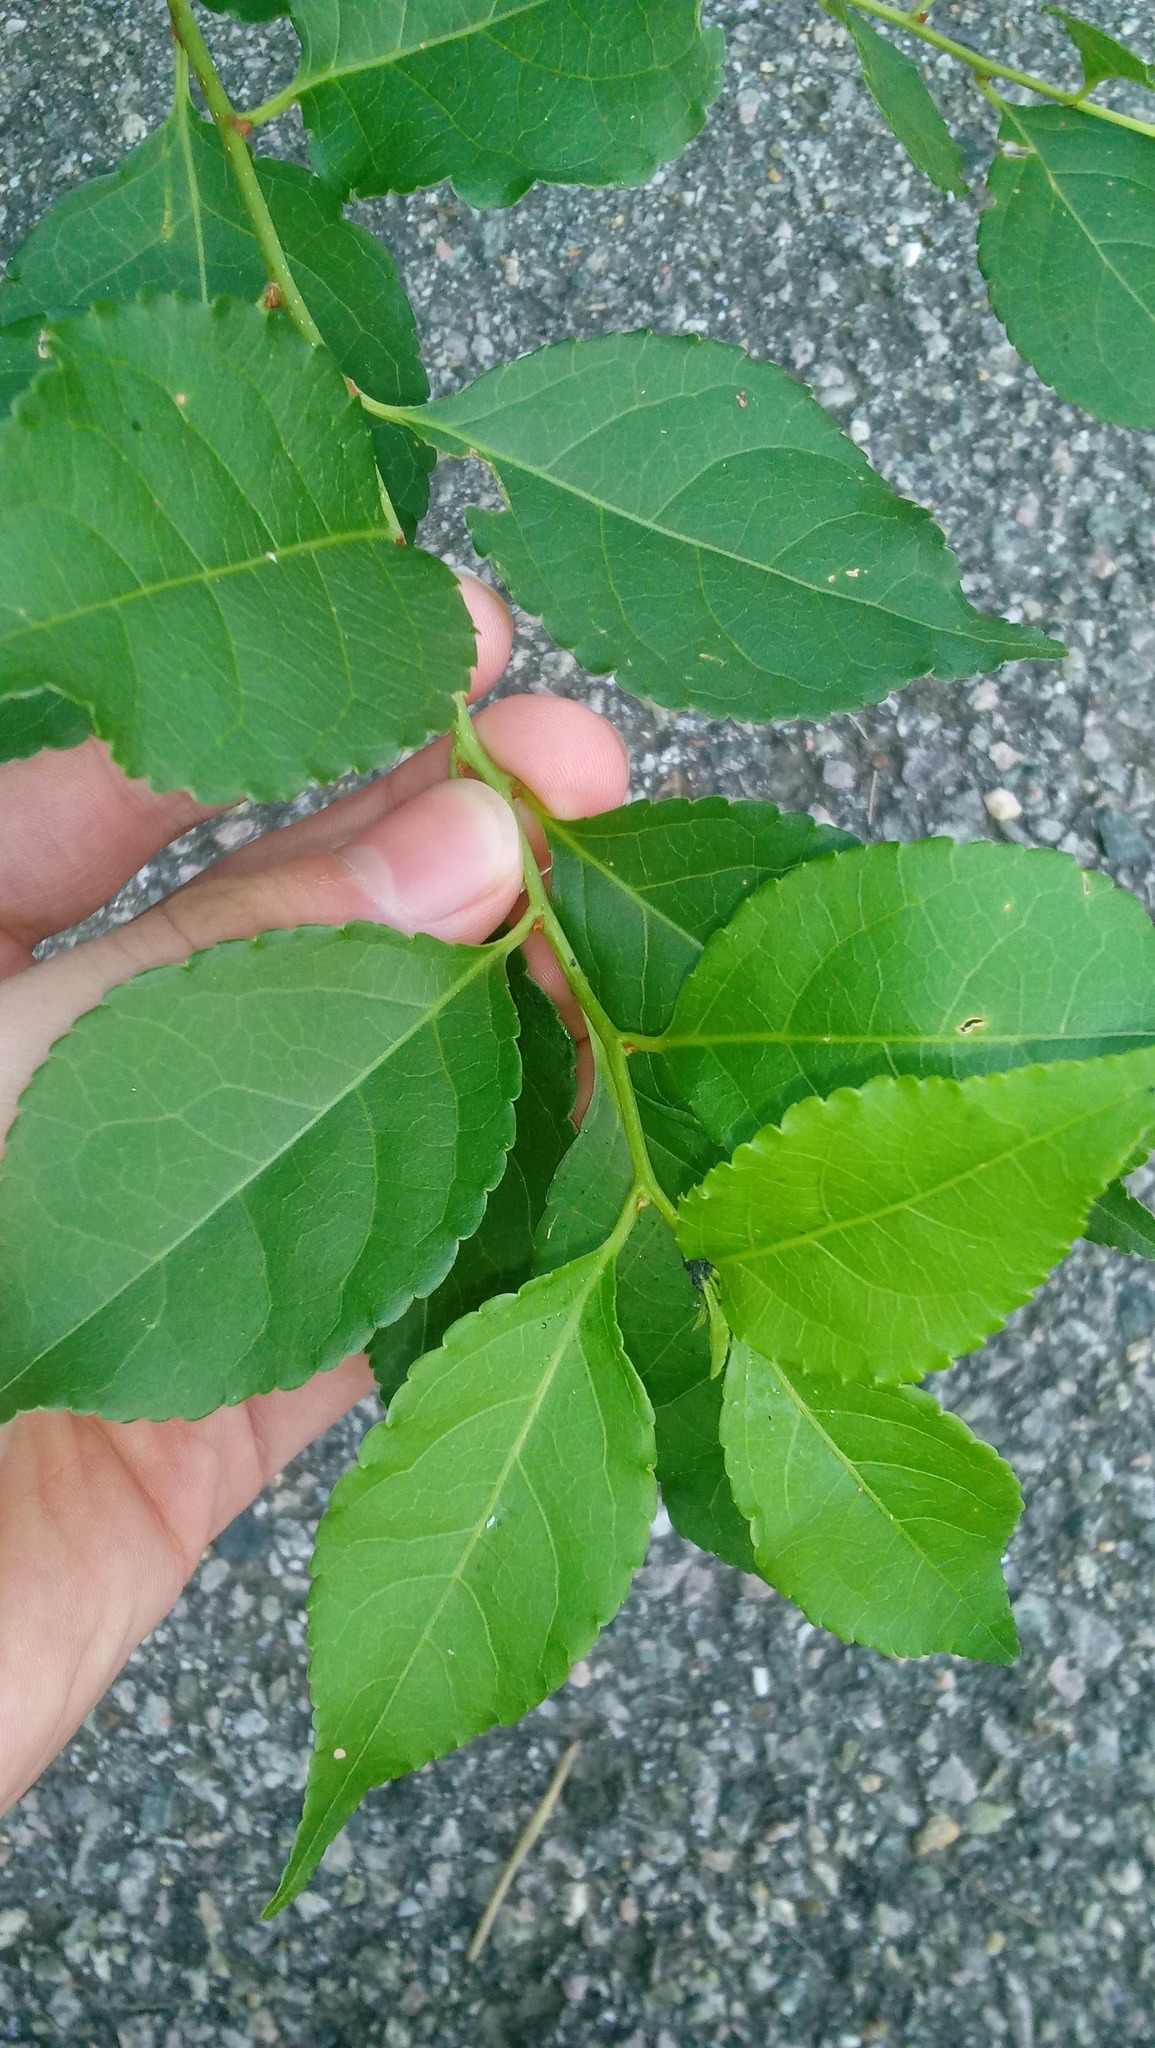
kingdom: Plantae
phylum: Tracheophyta
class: Magnoliopsida
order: Celastrales
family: Celastraceae
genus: Celastrus
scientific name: Celastrus orbiculatus
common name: Oriental bittersweet
